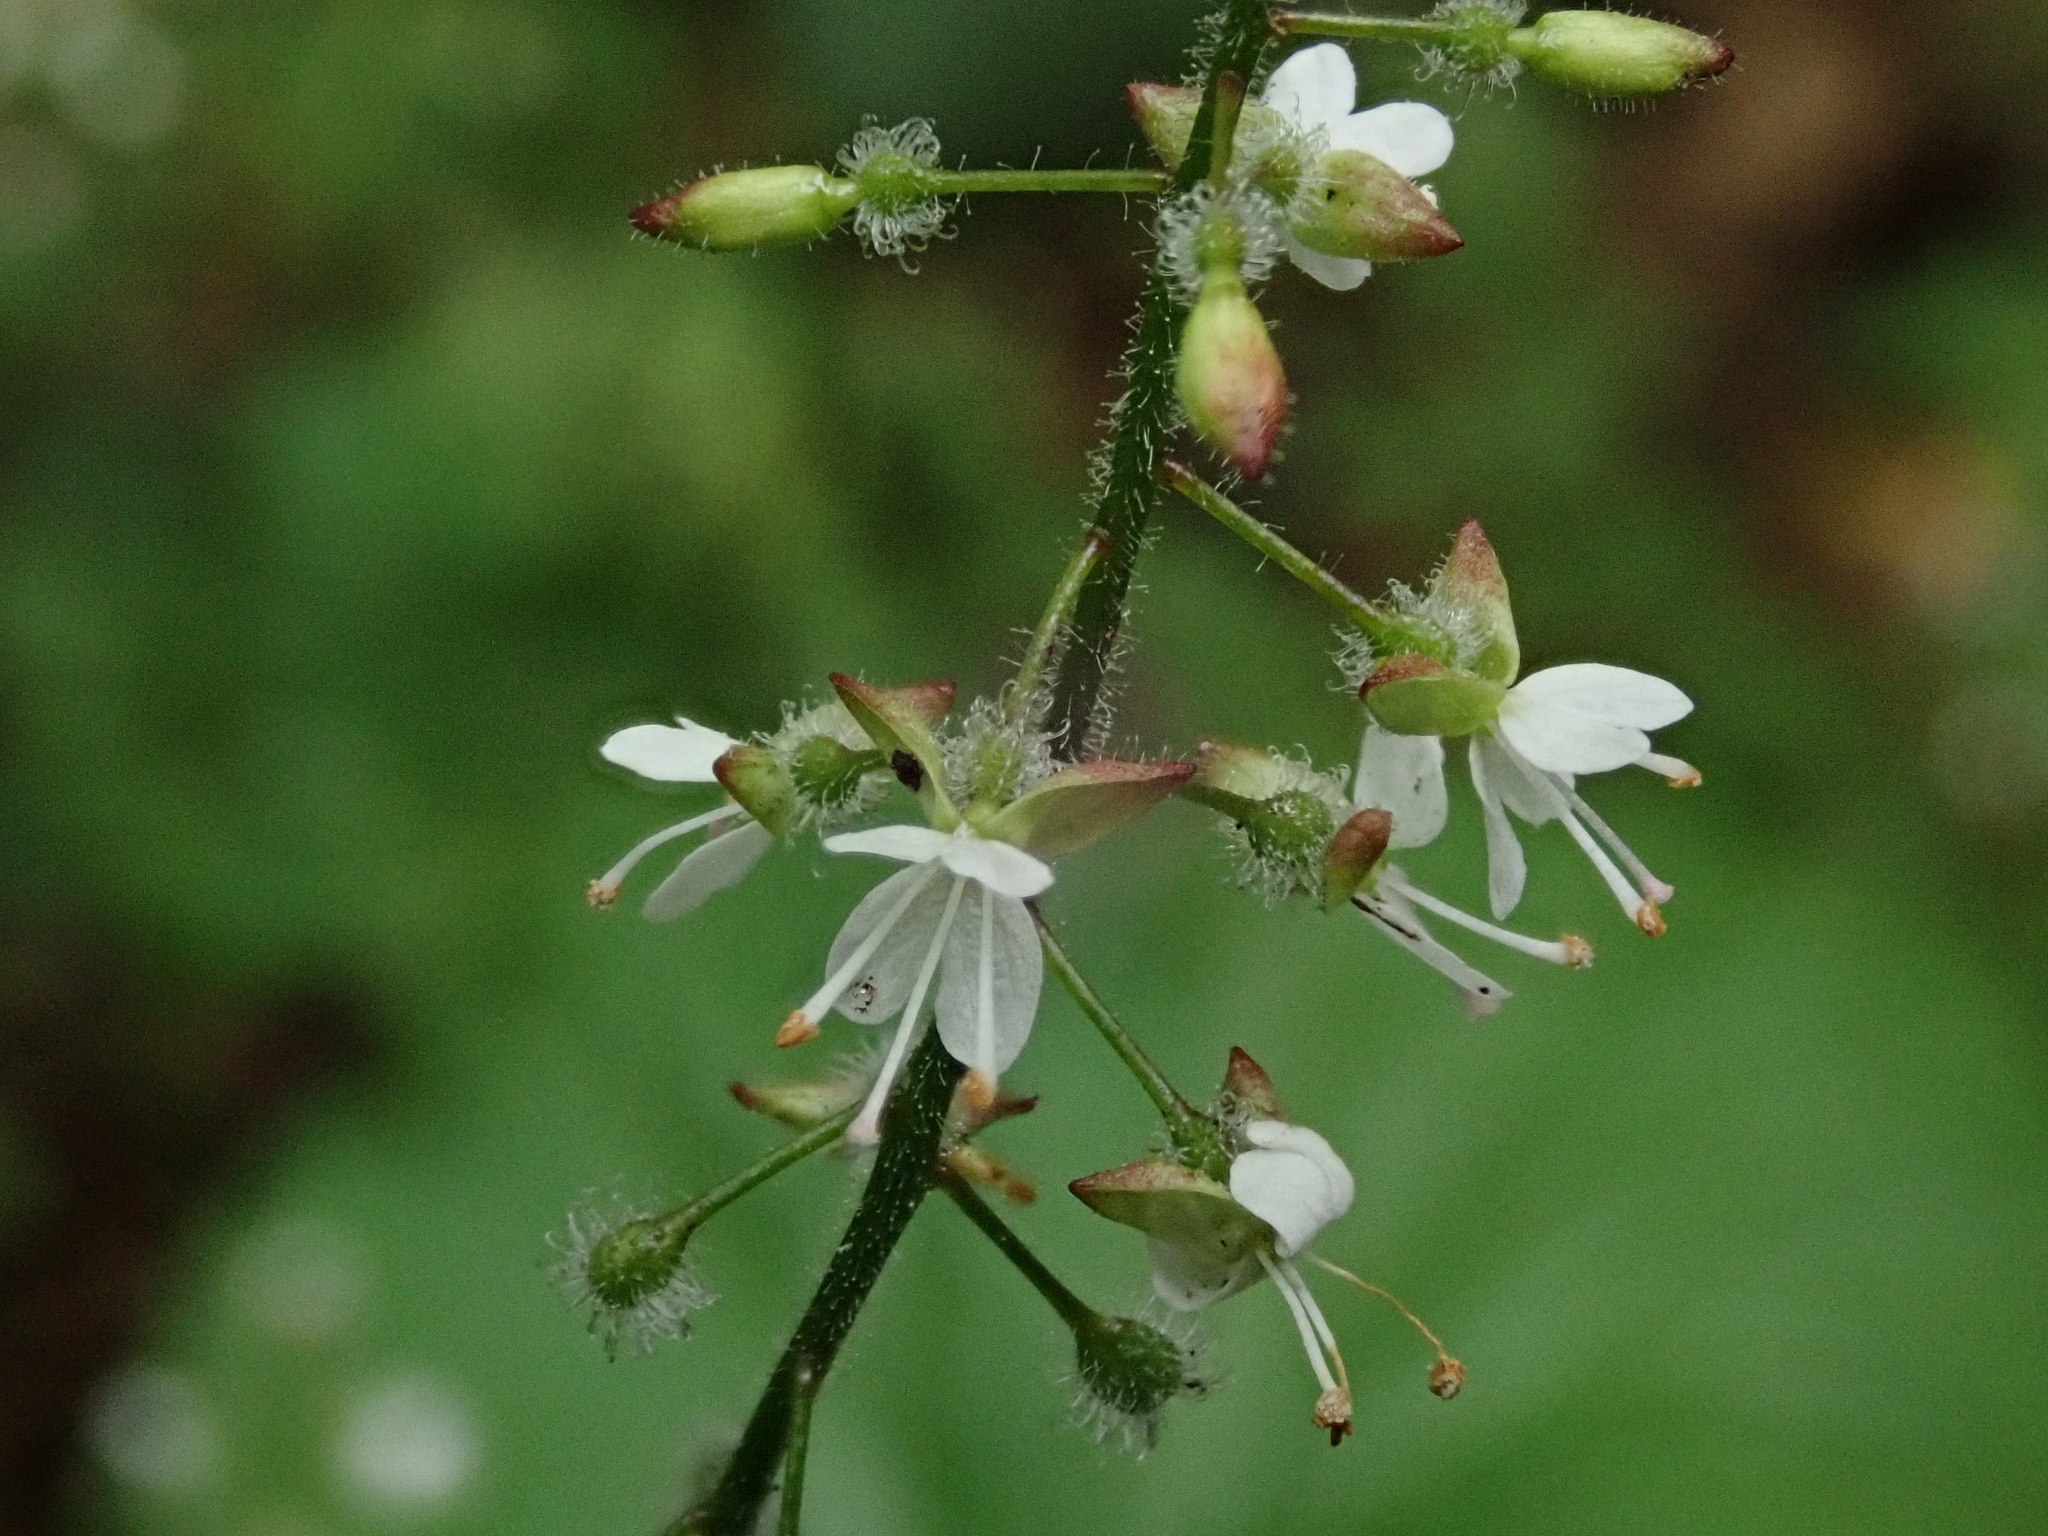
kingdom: Plantae
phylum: Tracheophyta
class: Magnoliopsida
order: Myrtales
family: Onagraceae
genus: Circaea
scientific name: Circaea lutetiana
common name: Enchanter's-nightshade
